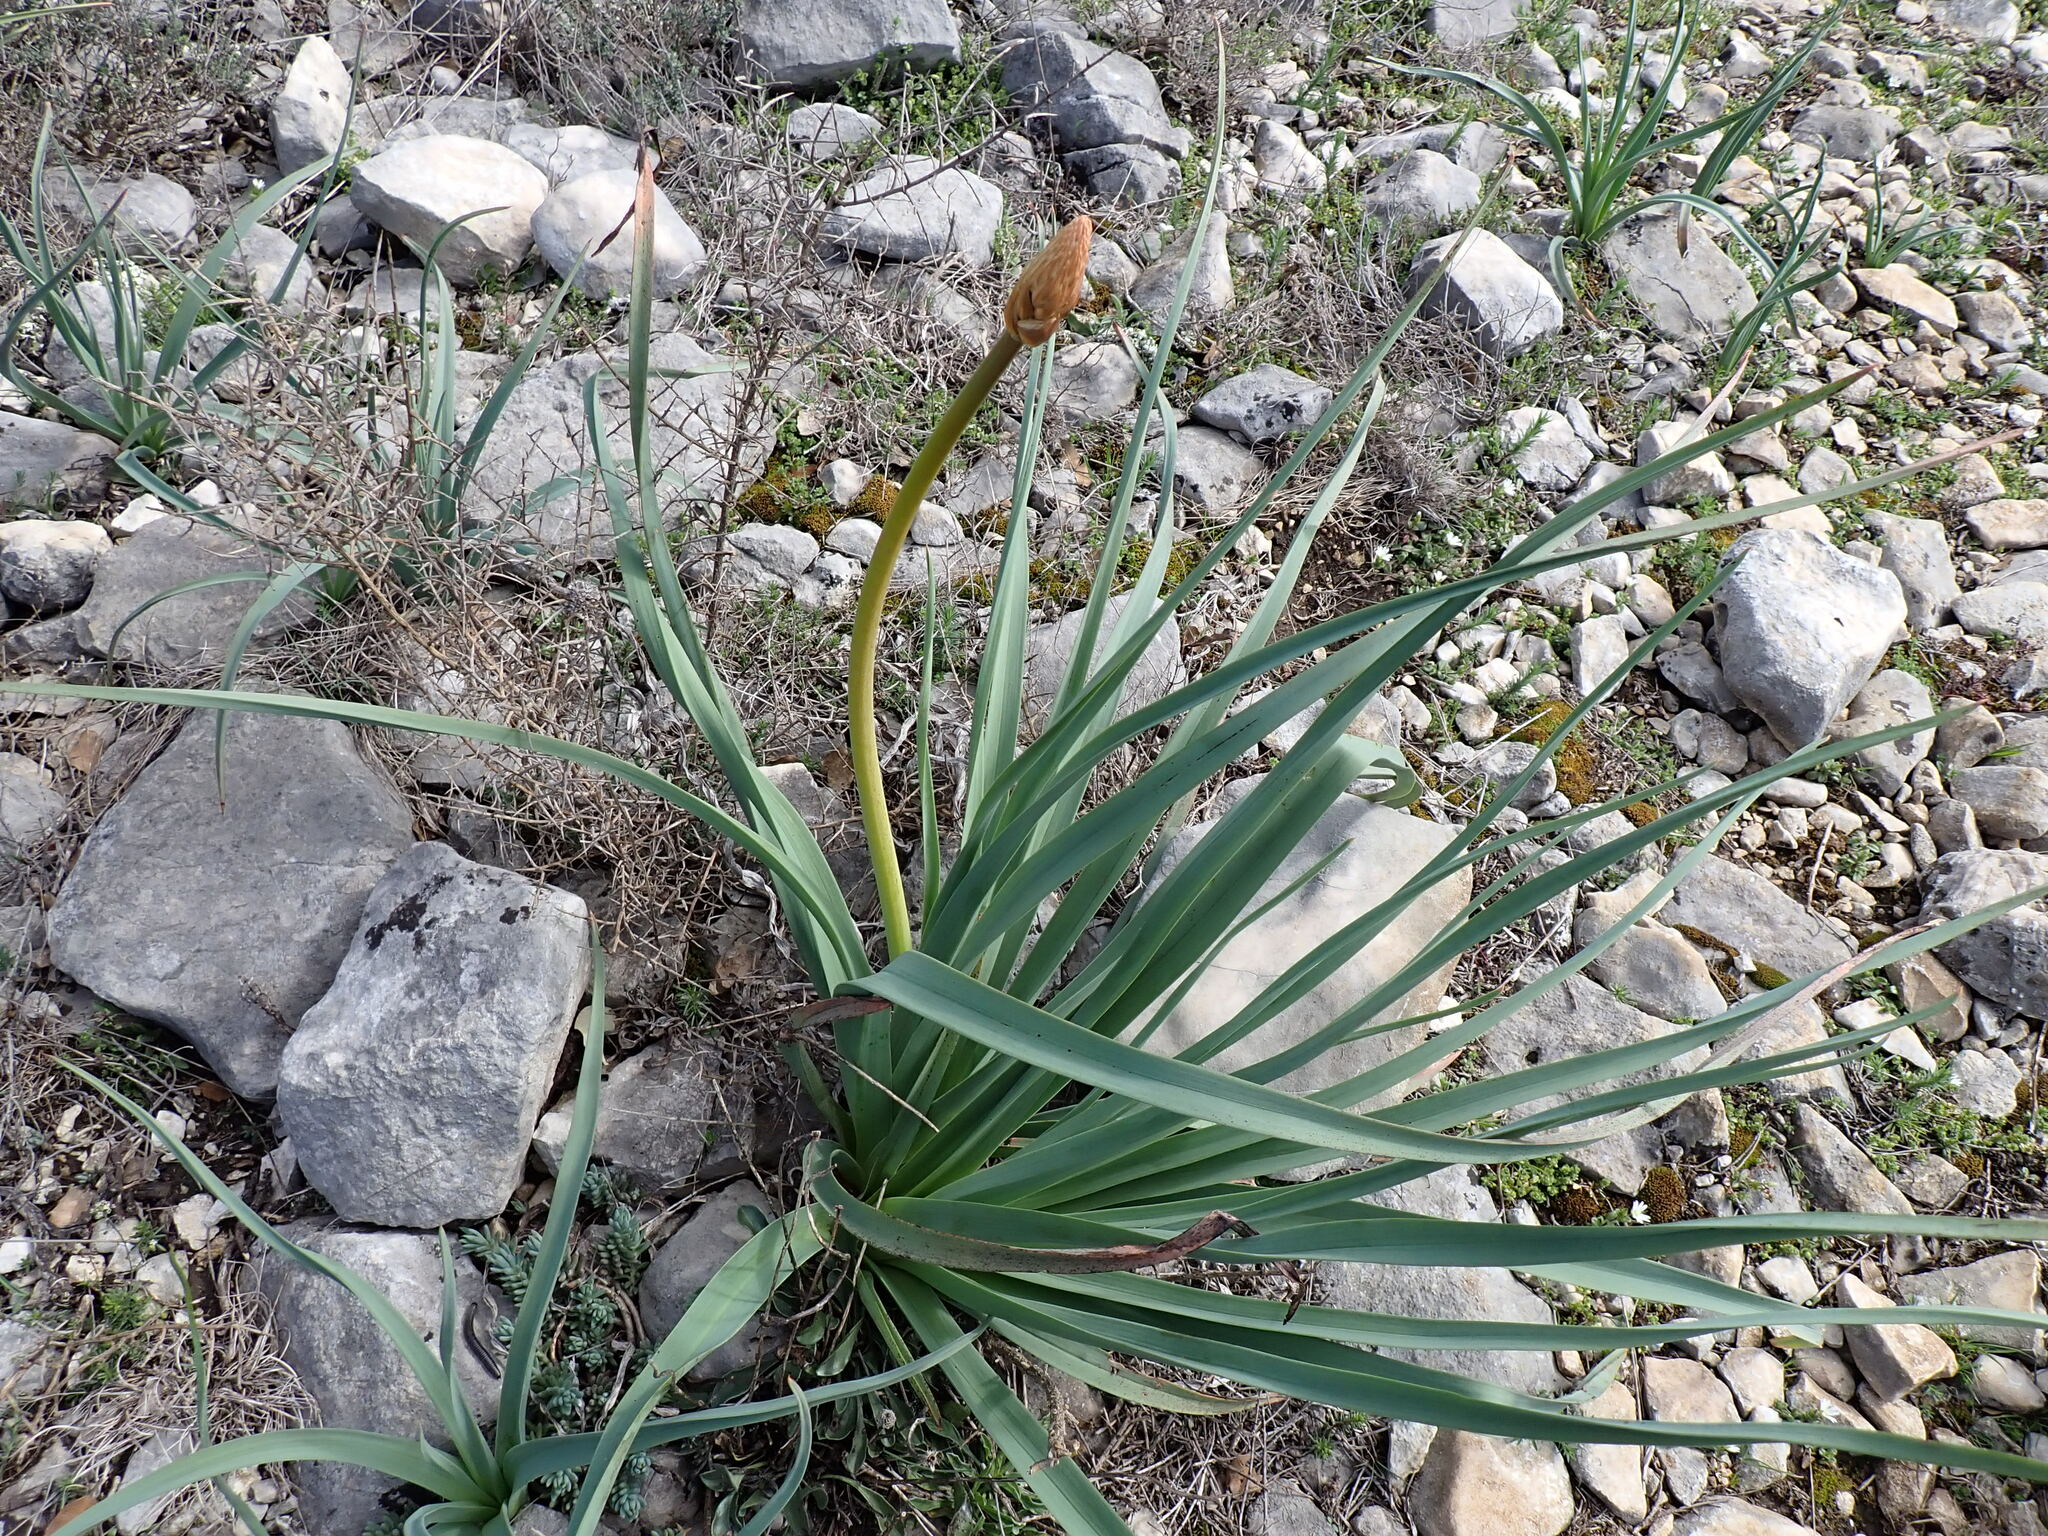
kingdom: Plantae
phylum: Tracheophyta
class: Liliopsida
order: Asparagales
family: Asphodelaceae
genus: Asphodelus
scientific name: Asphodelus cerasifer
